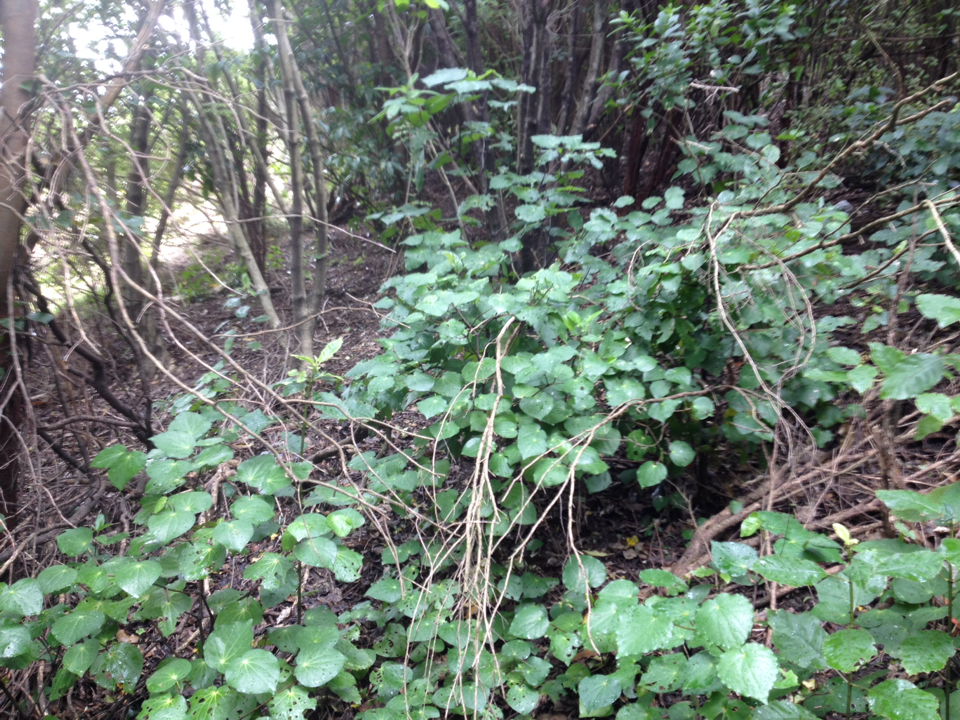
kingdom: Plantae
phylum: Tracheophyta
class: Magnoliopsida
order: Piperales
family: Piperaceae
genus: Macropiper
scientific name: Macropiper excelsum
